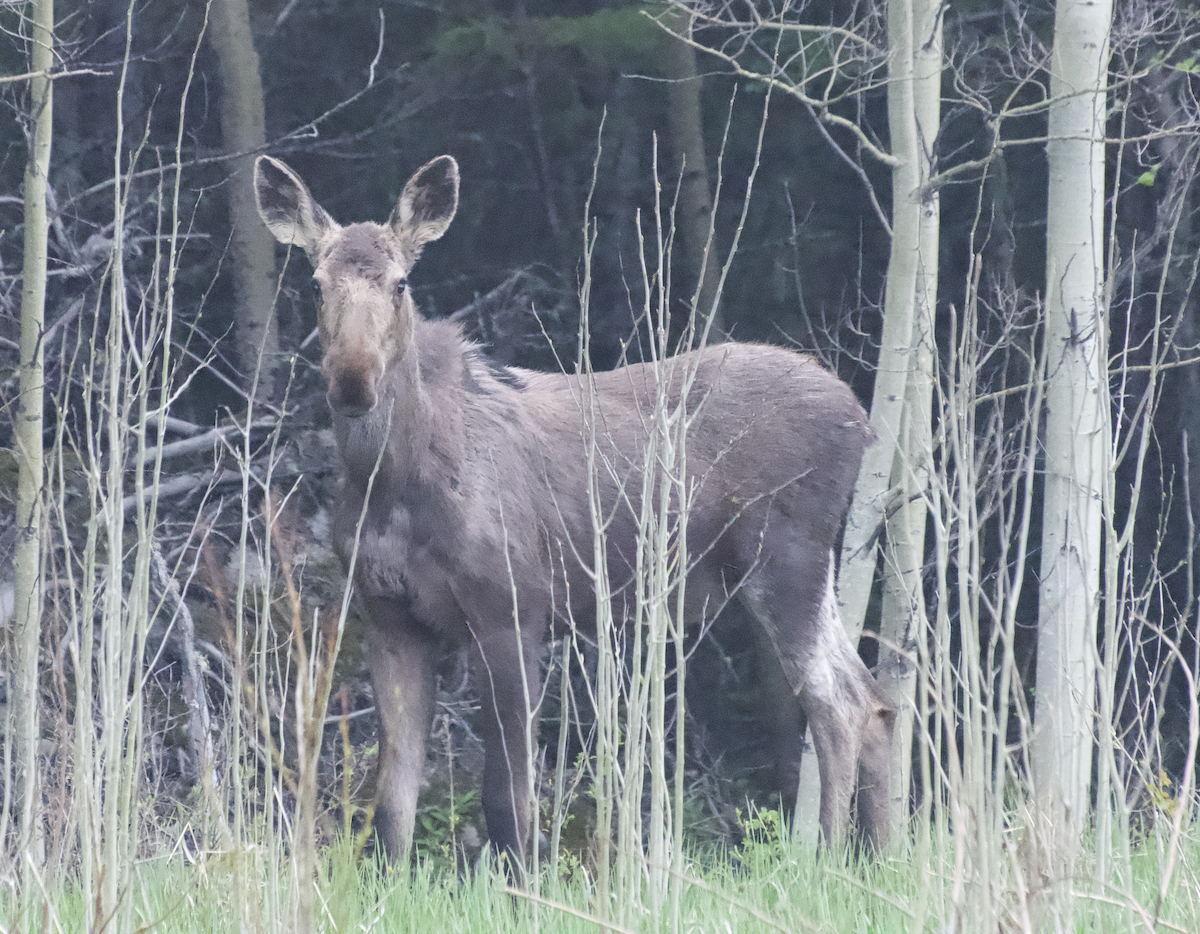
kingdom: Animalia
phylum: Chordata
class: Mammalia
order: Artiodactyla
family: Cervidae
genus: Alces
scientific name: Alces alces
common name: Moose
